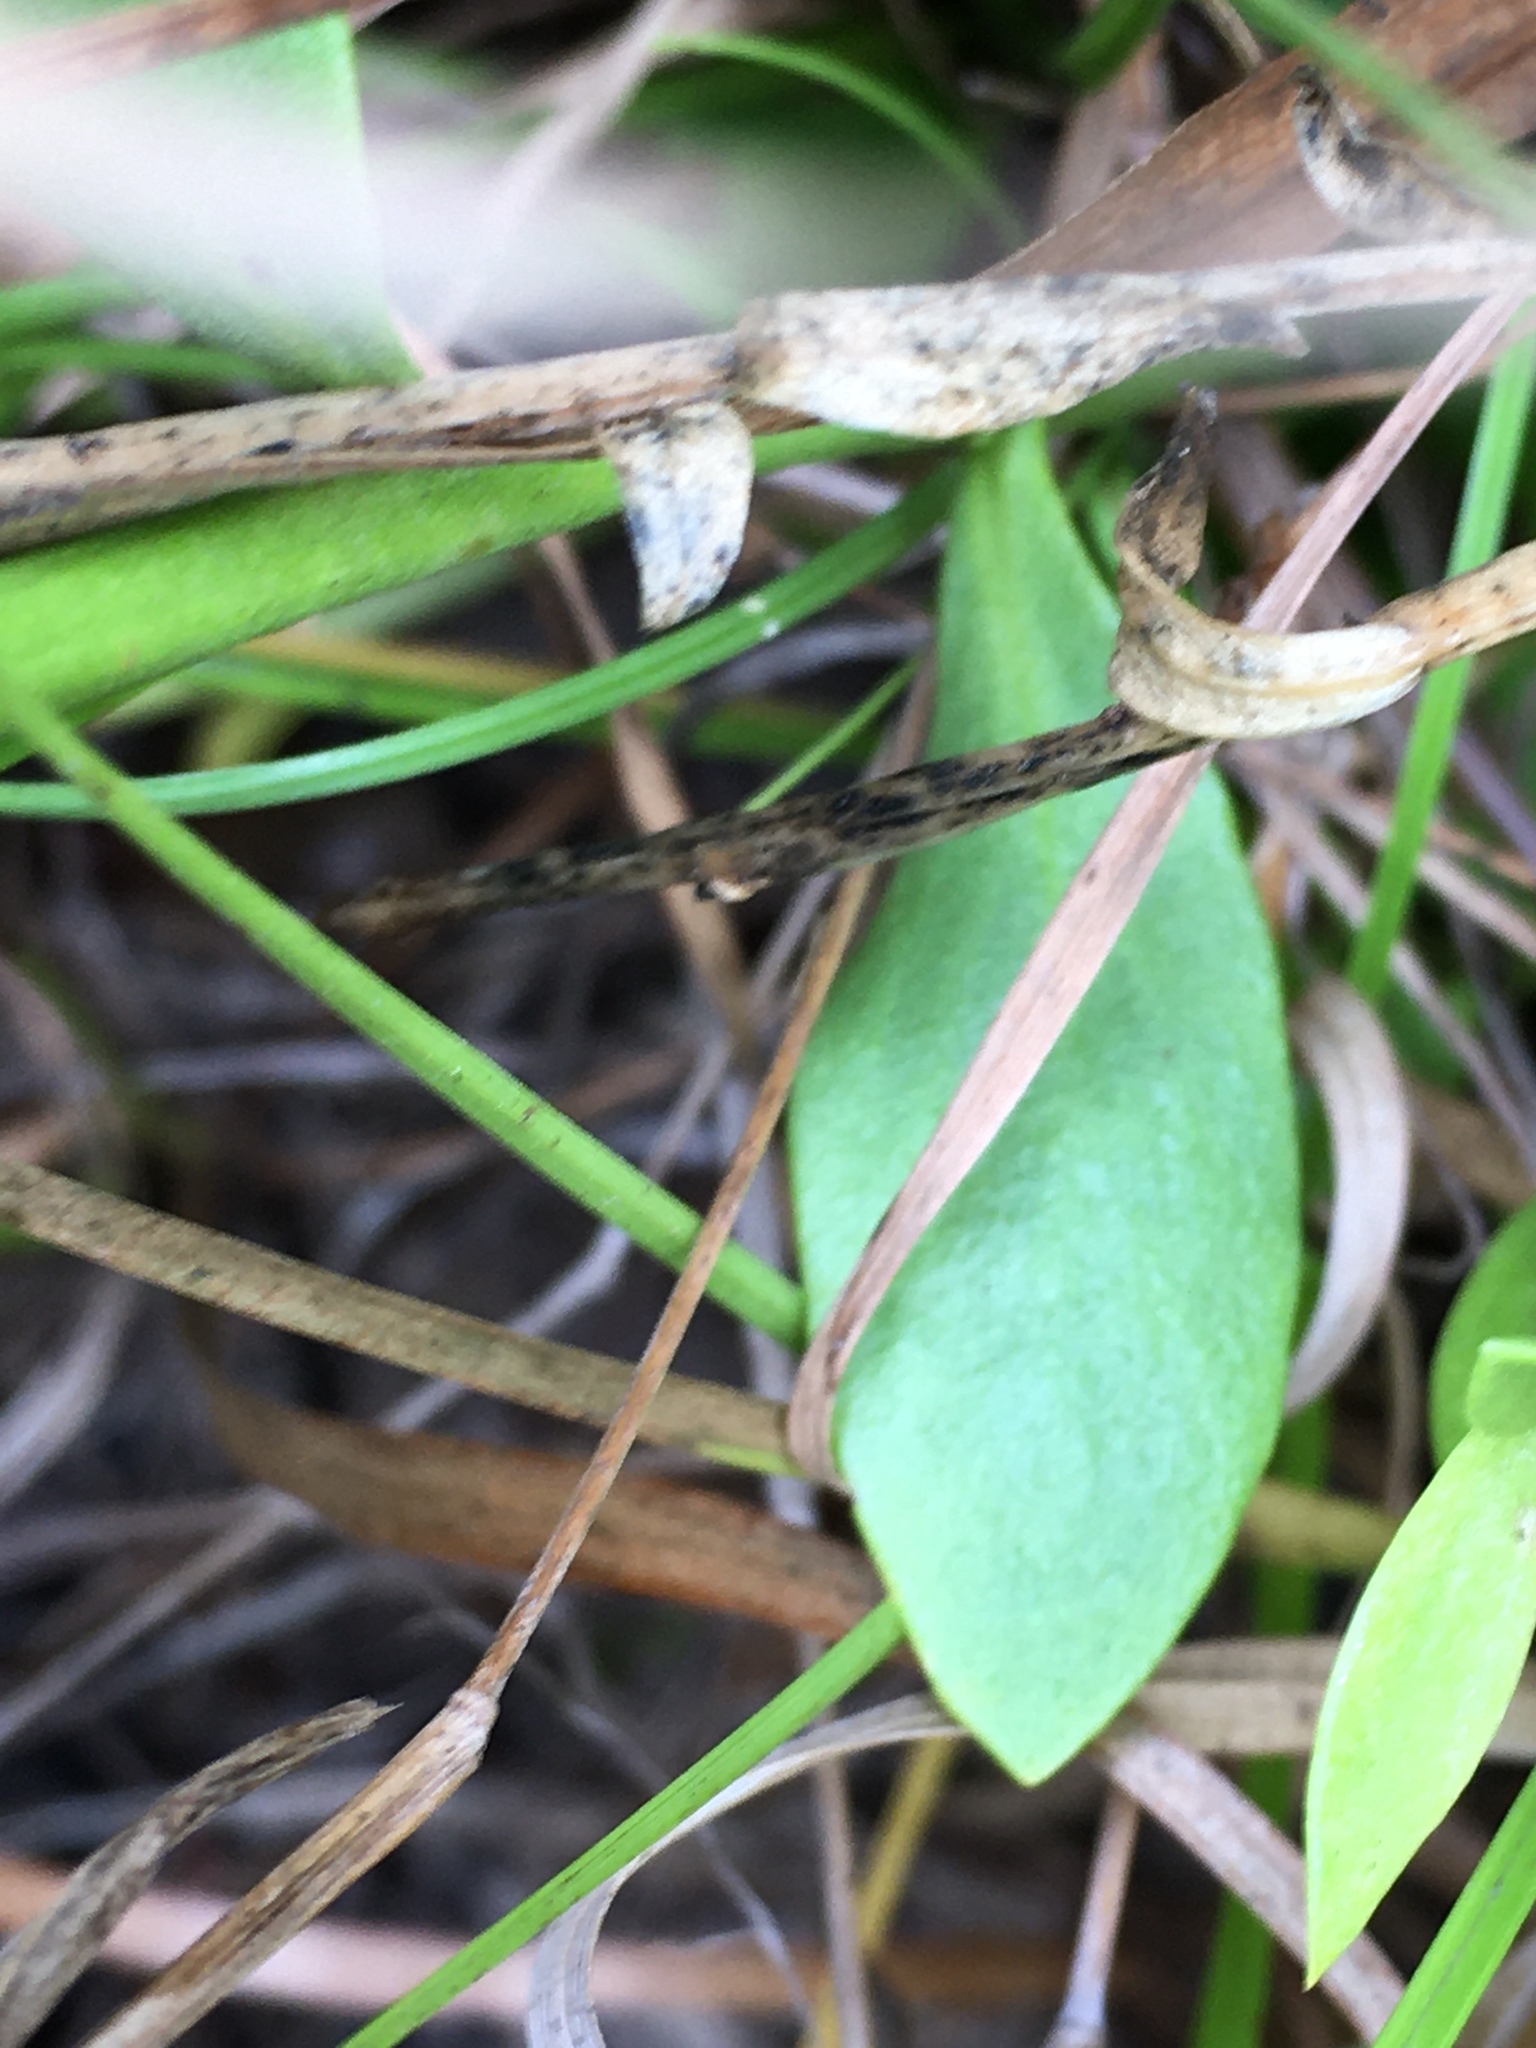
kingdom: Plantae
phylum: Tracheophyta
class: Magnoliopsida
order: Fabales
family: Polygalaceae
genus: Polygala
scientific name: Polygala lutea
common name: Orange milkwort
